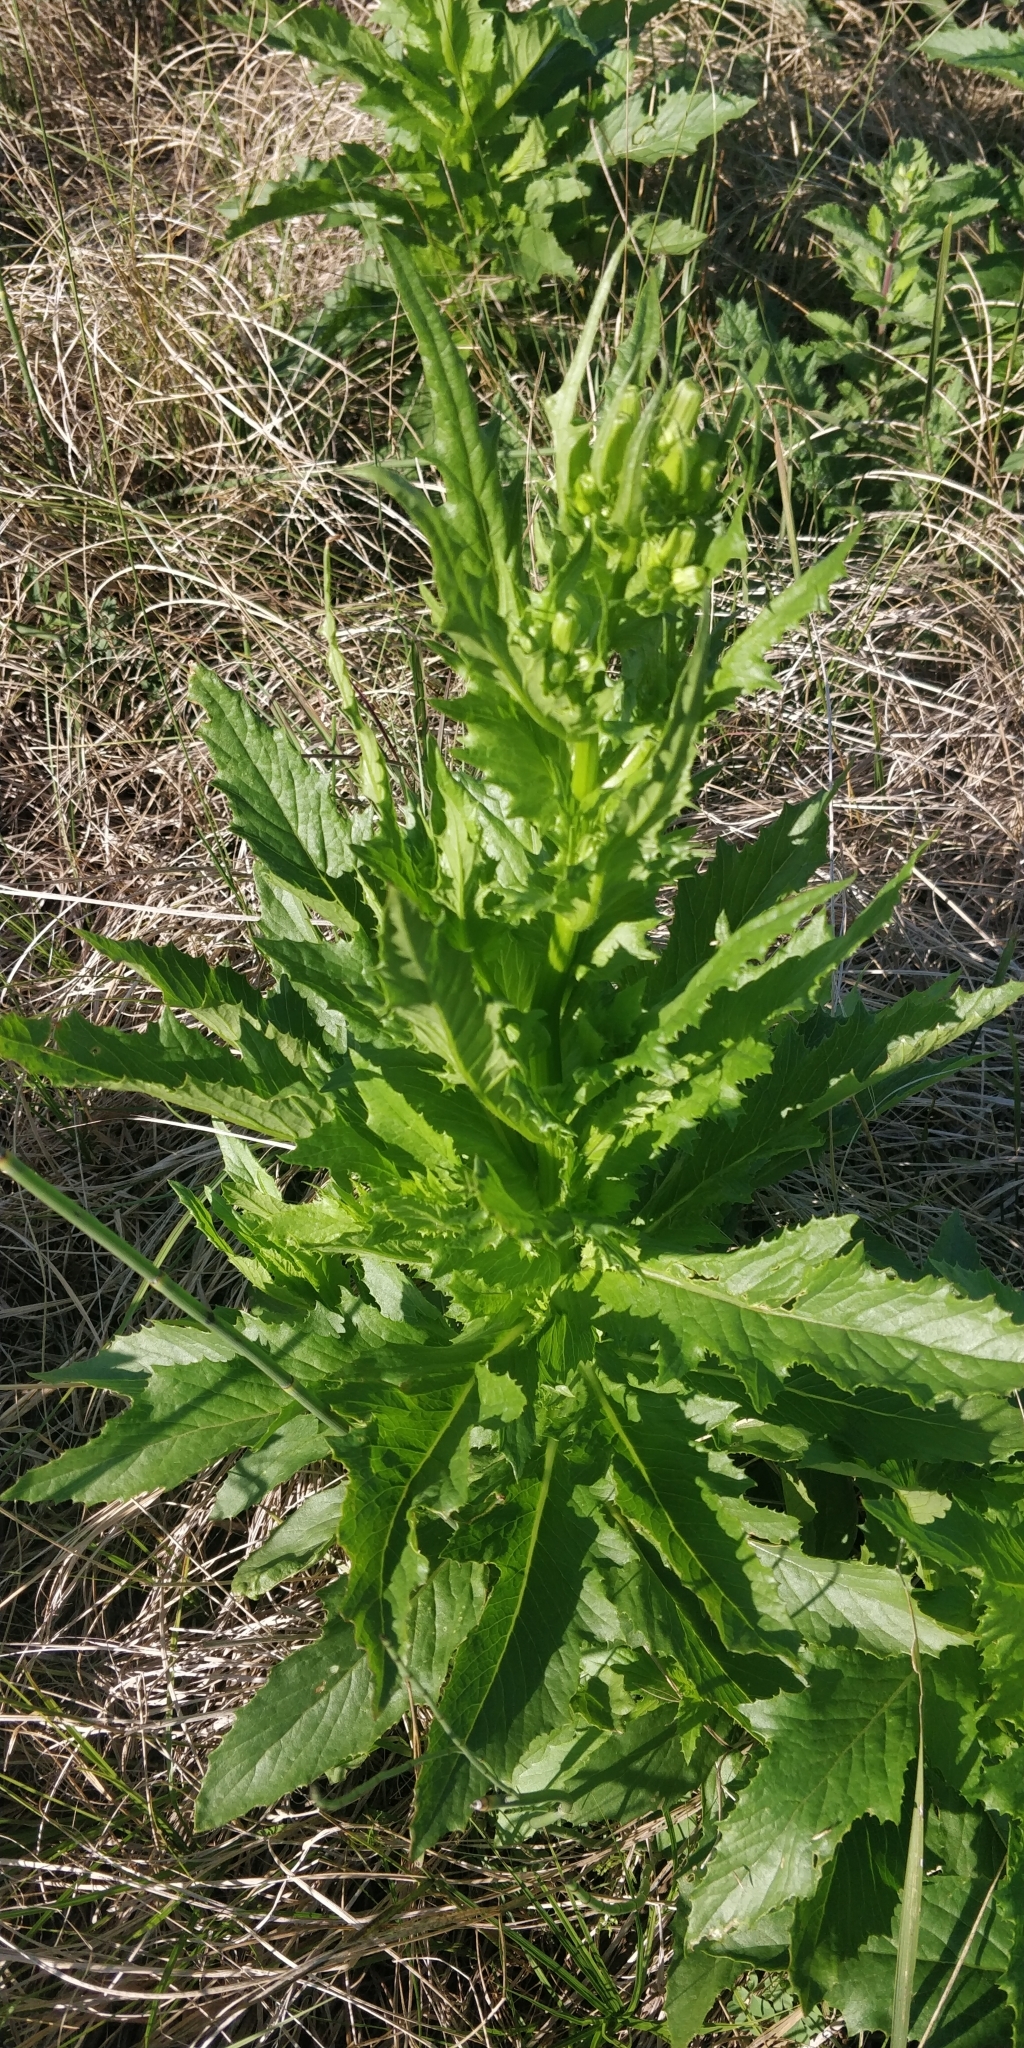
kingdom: Plantae
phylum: Tracheophyta
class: Magnoliopsida
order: Asterales
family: Asteraceae
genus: Erechtites
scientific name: Erechtites hieraciifolius
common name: American burnweed
